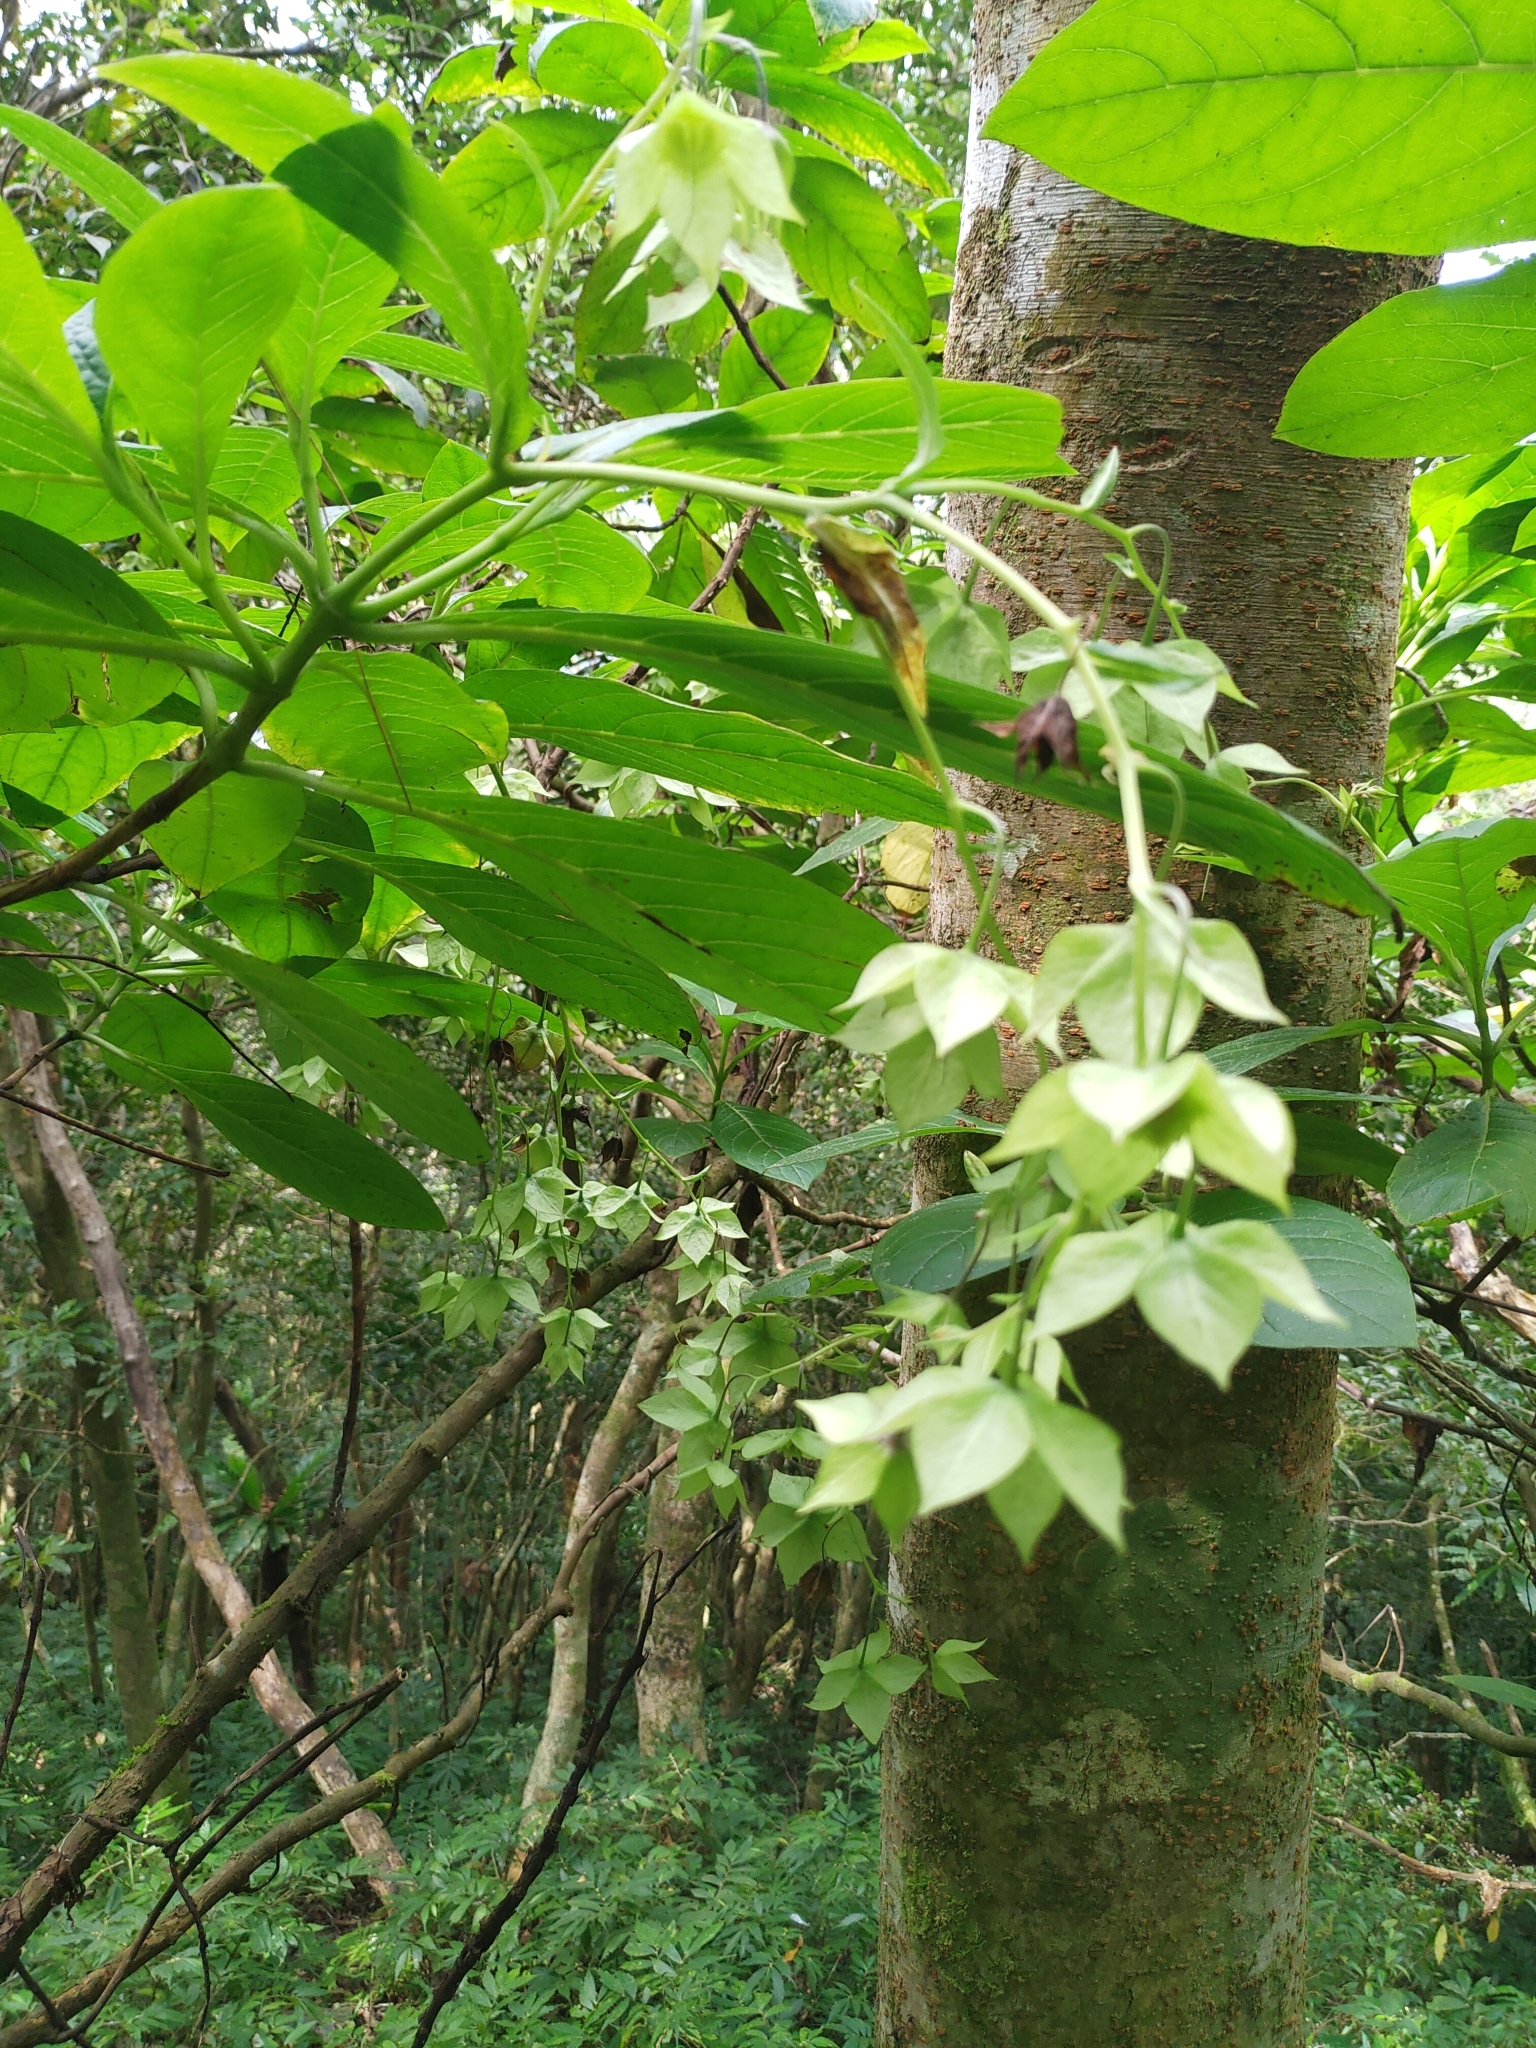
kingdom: Plantae
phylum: Tracheophyta
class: Magnoliopsida
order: Boraginales
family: Boraginaceae
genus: Trichodesma
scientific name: Trichodesma calycosum
